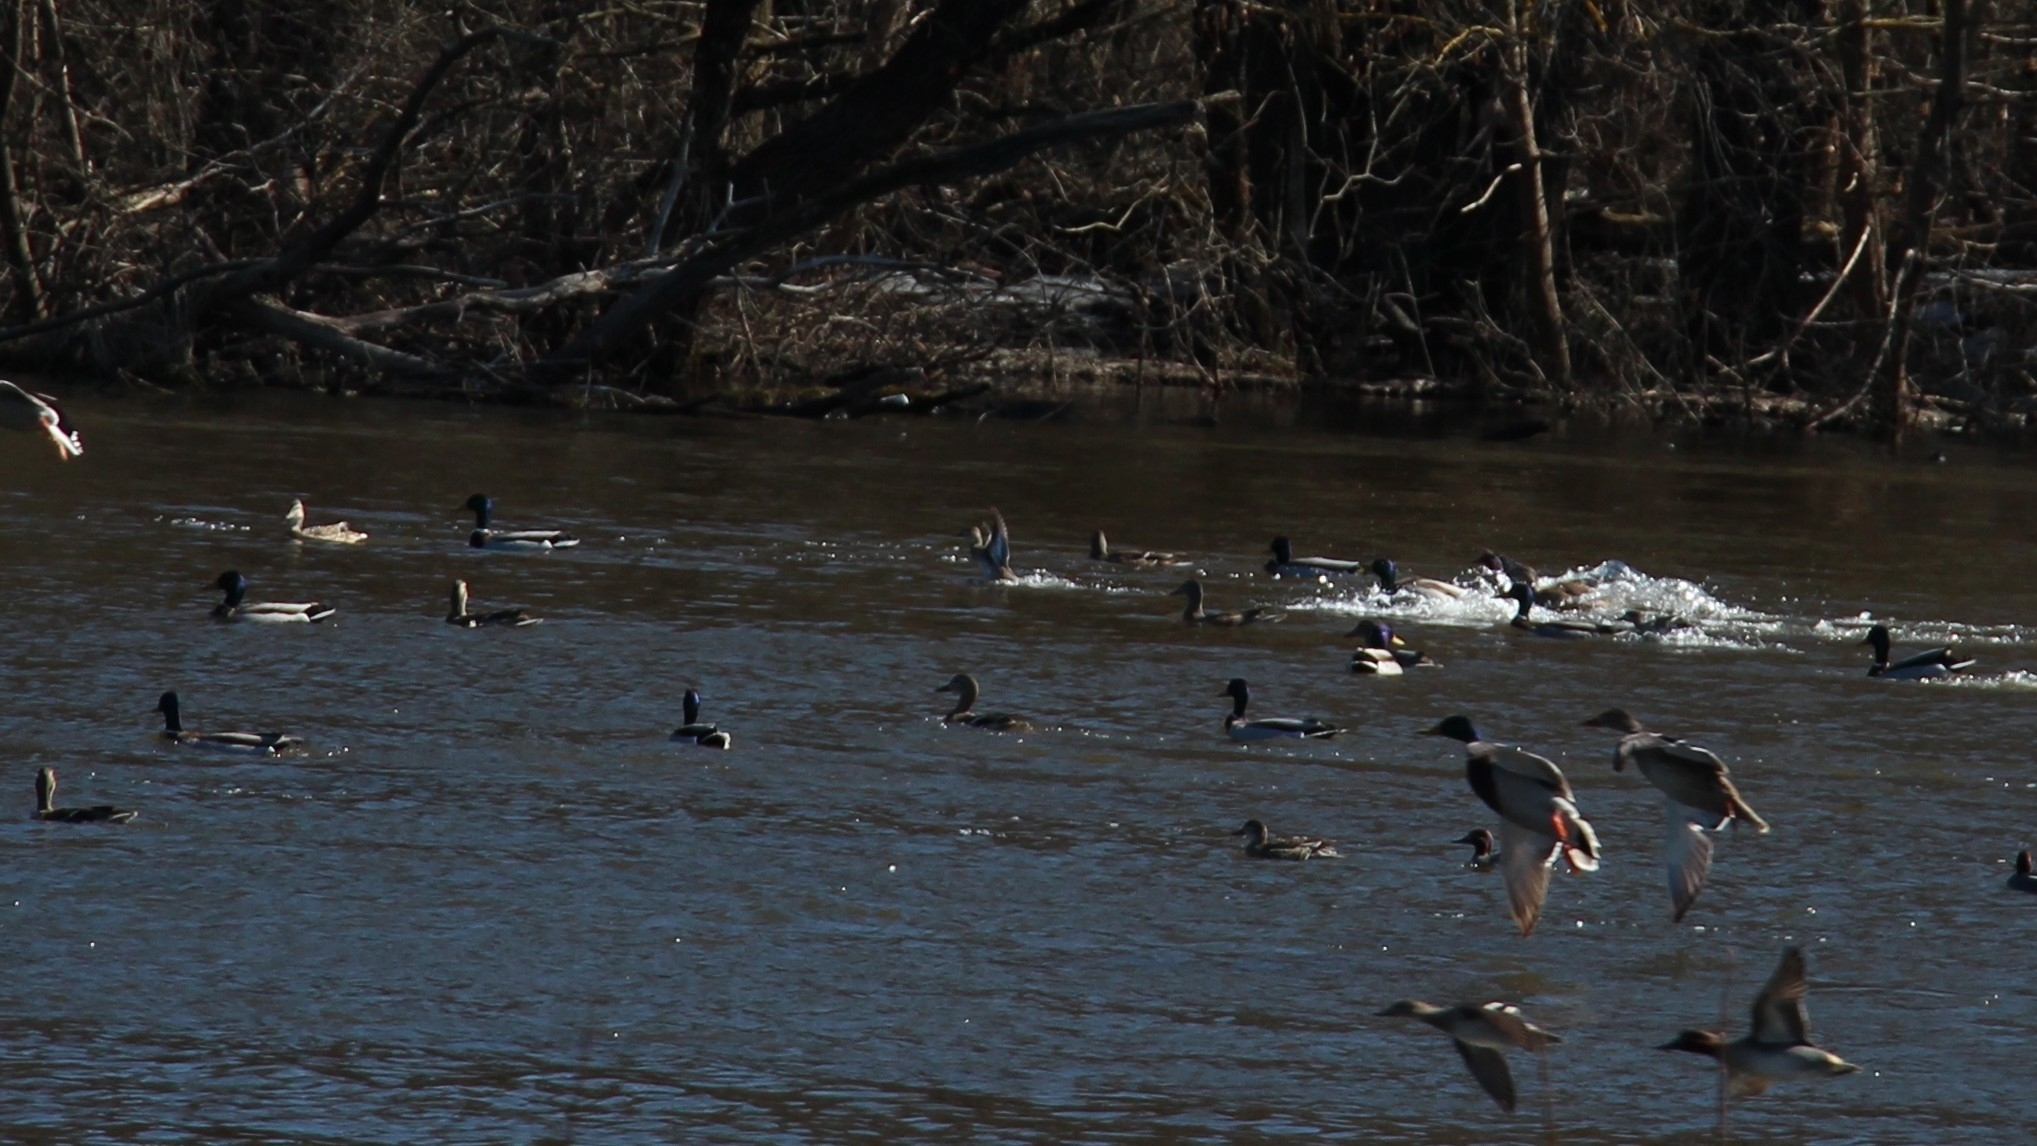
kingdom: Animalia
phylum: Chordata
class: Aves
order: Anseriformes
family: Anatidae
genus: Anas
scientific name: Anas platyrhynchos
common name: Mallard
